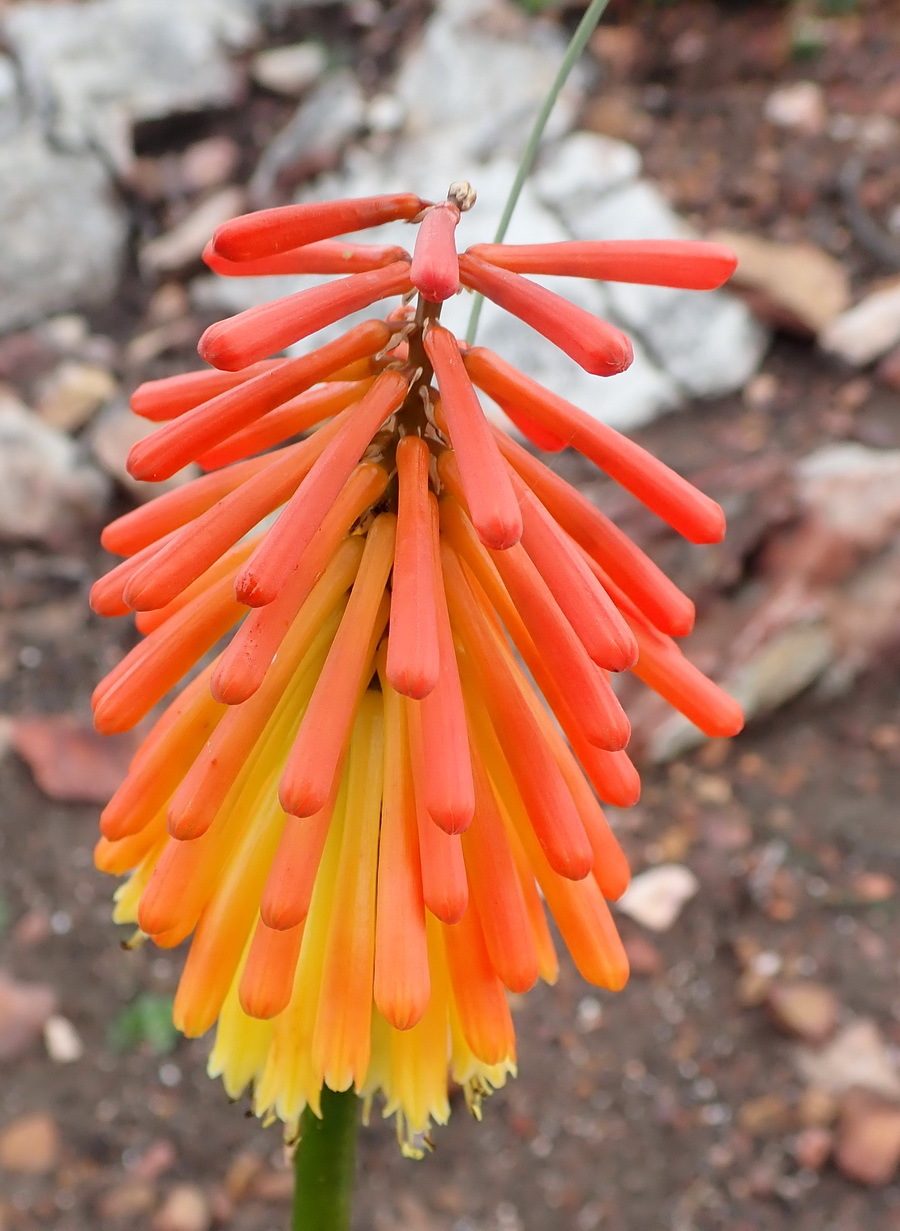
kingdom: Plantae
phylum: Tracheophyta
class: Liliopsida
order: Asparagales
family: Asphodelaceae
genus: Kniphofia
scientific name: Kniphofia uvaria
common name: Red-hot-poker
